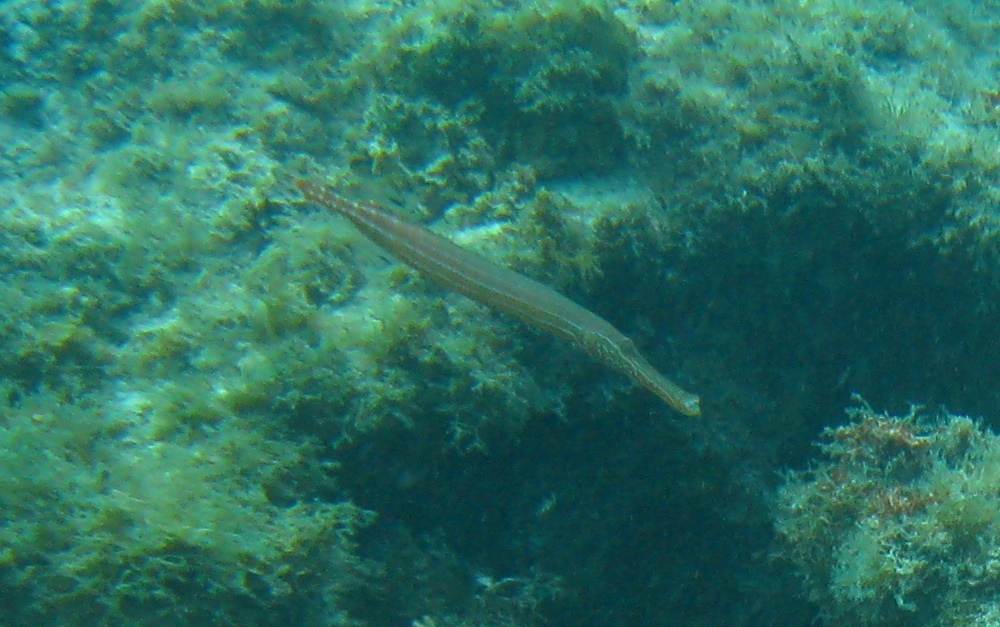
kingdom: Animalia
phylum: Chordata
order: Syngnathiformes
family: Aulostomidae
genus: Aulostomus
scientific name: Aulostomus maculatus
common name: West atlantic trumpetfish
